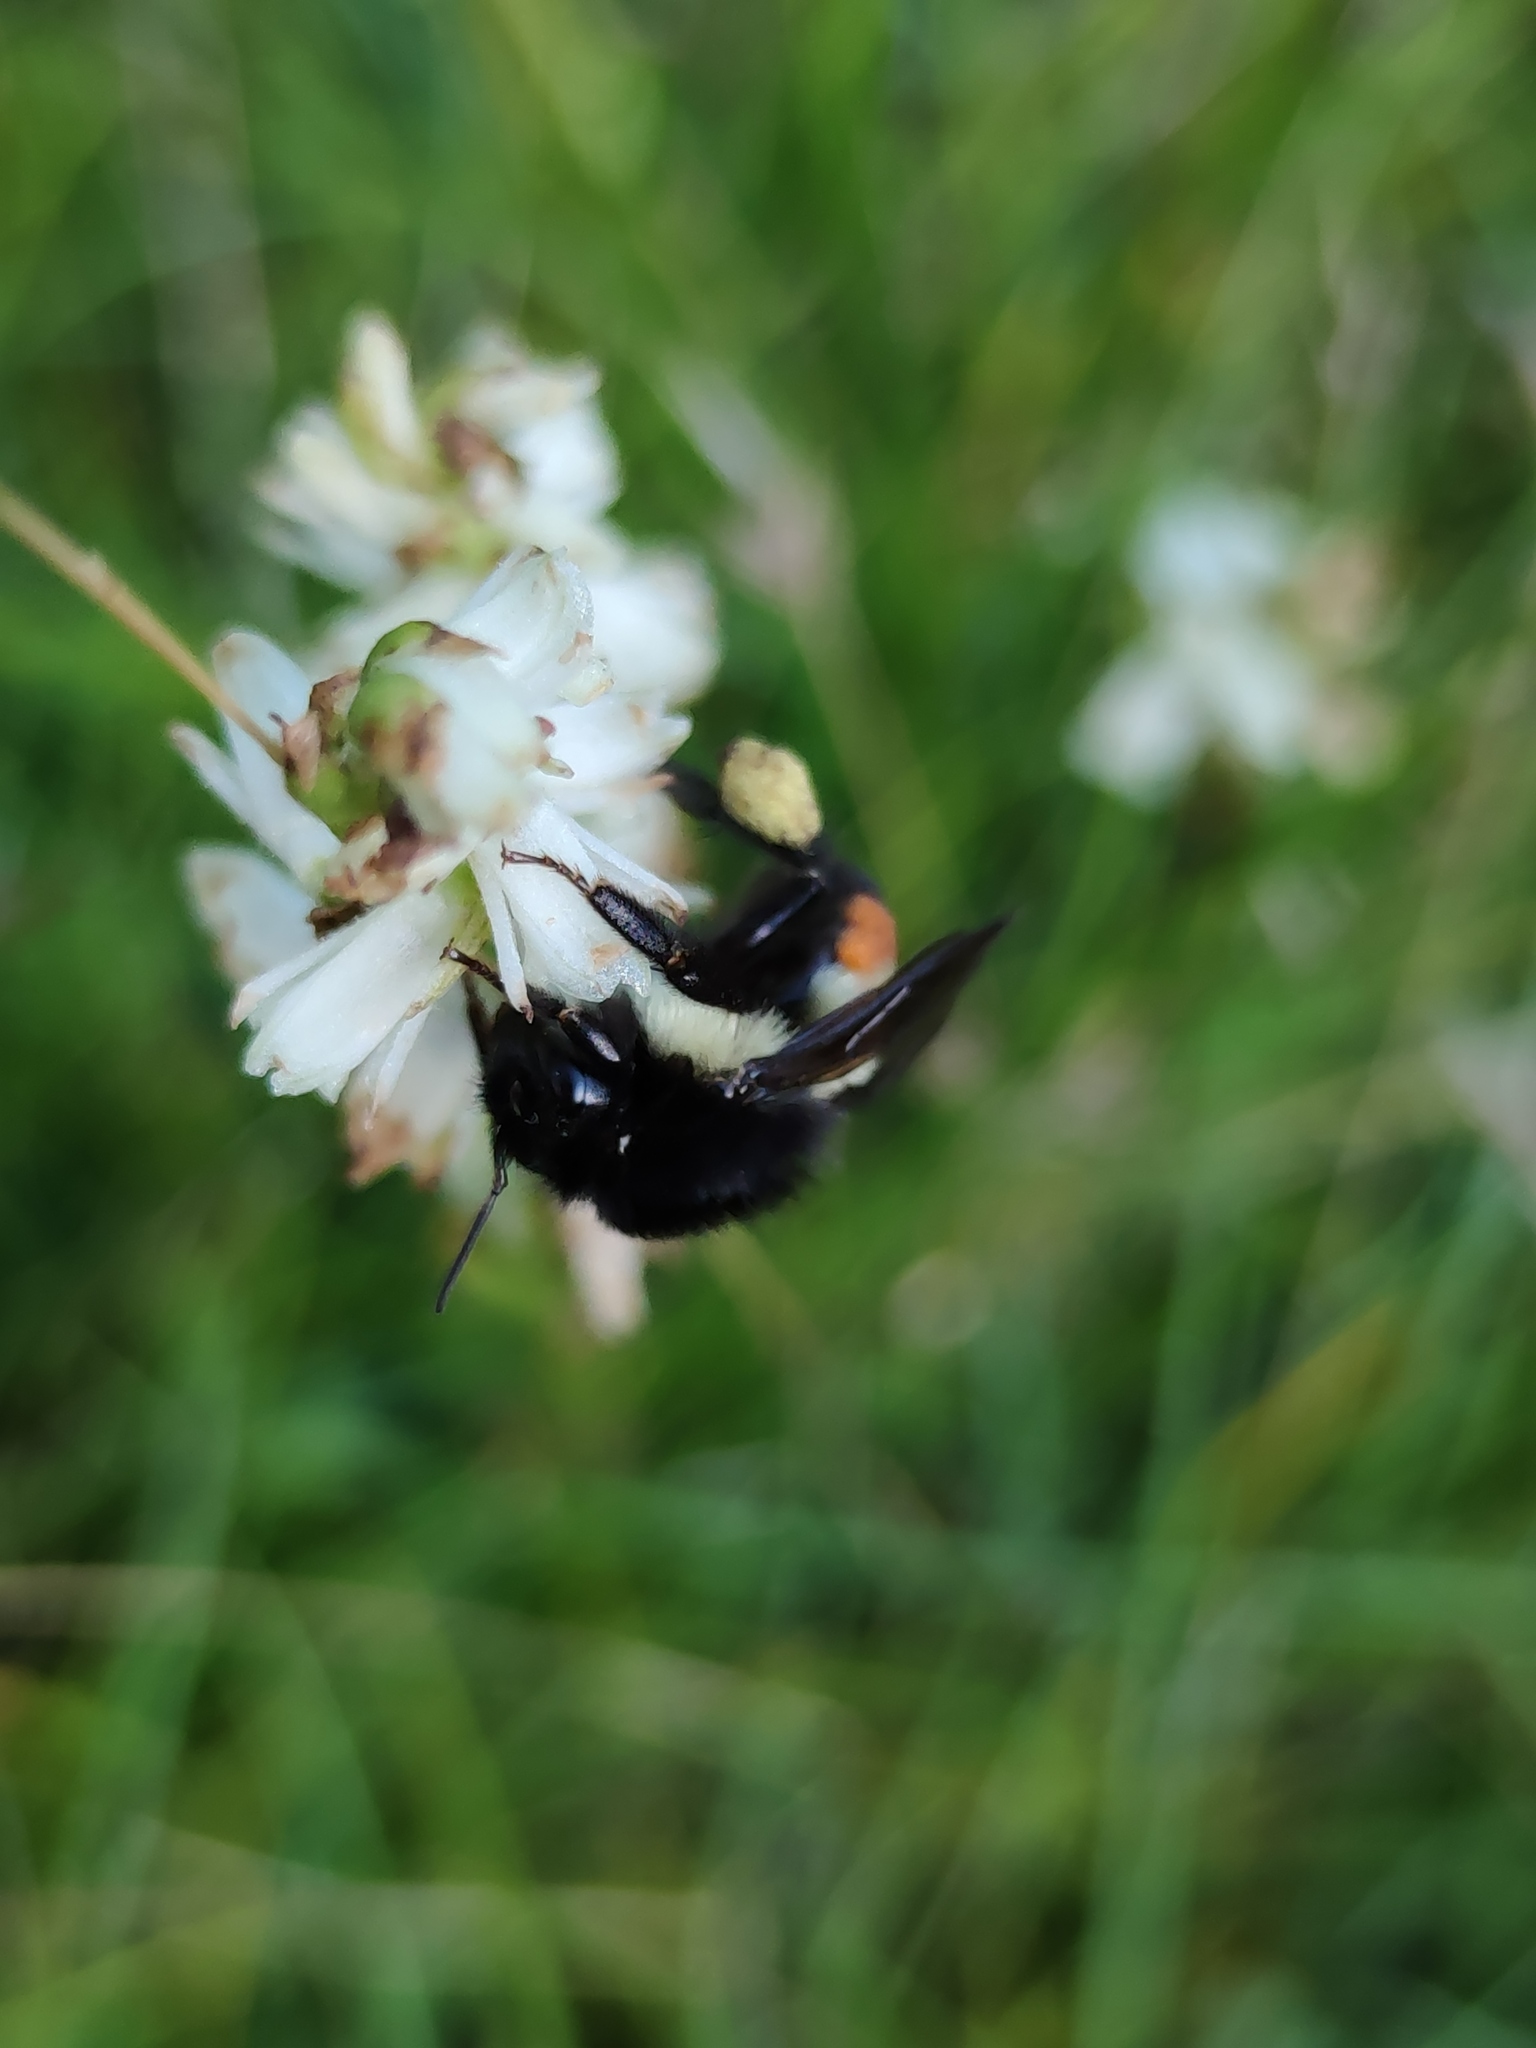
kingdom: Animalia
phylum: Arthropoda
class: Insecta
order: Hymenoptera
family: Apidae
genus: Bombus
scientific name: Bombus ephippiatus
